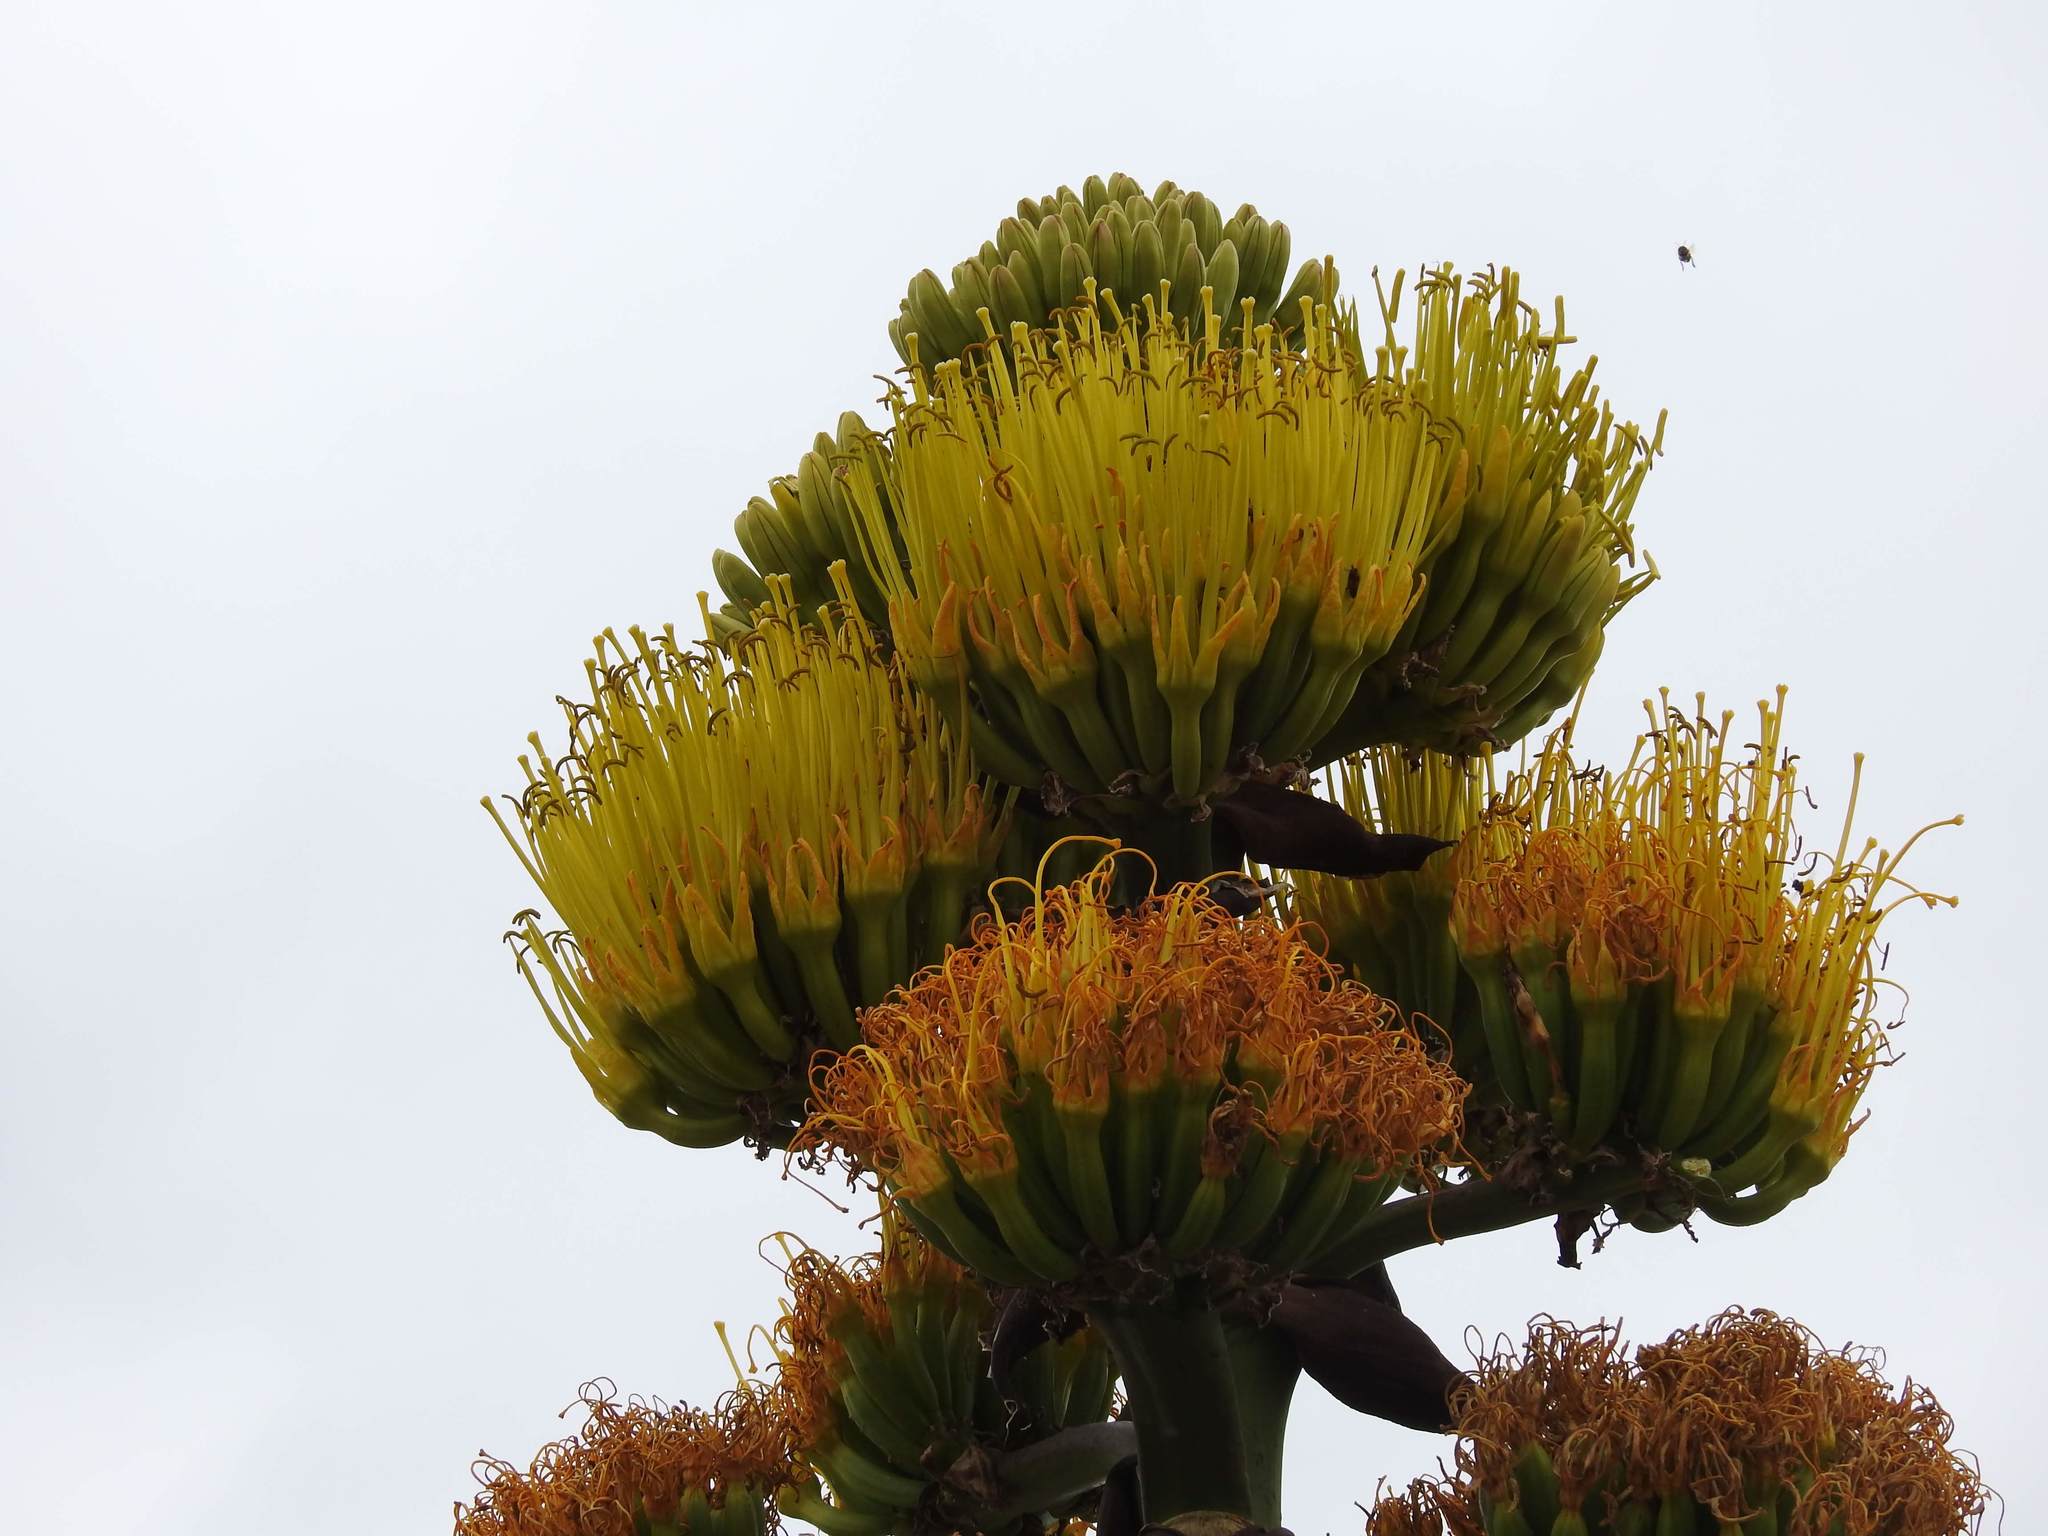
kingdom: Plantae
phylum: Tracheophyta
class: Liliopsida
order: Asparagales
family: Asparagaceae
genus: Agave
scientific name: Agave shawii
